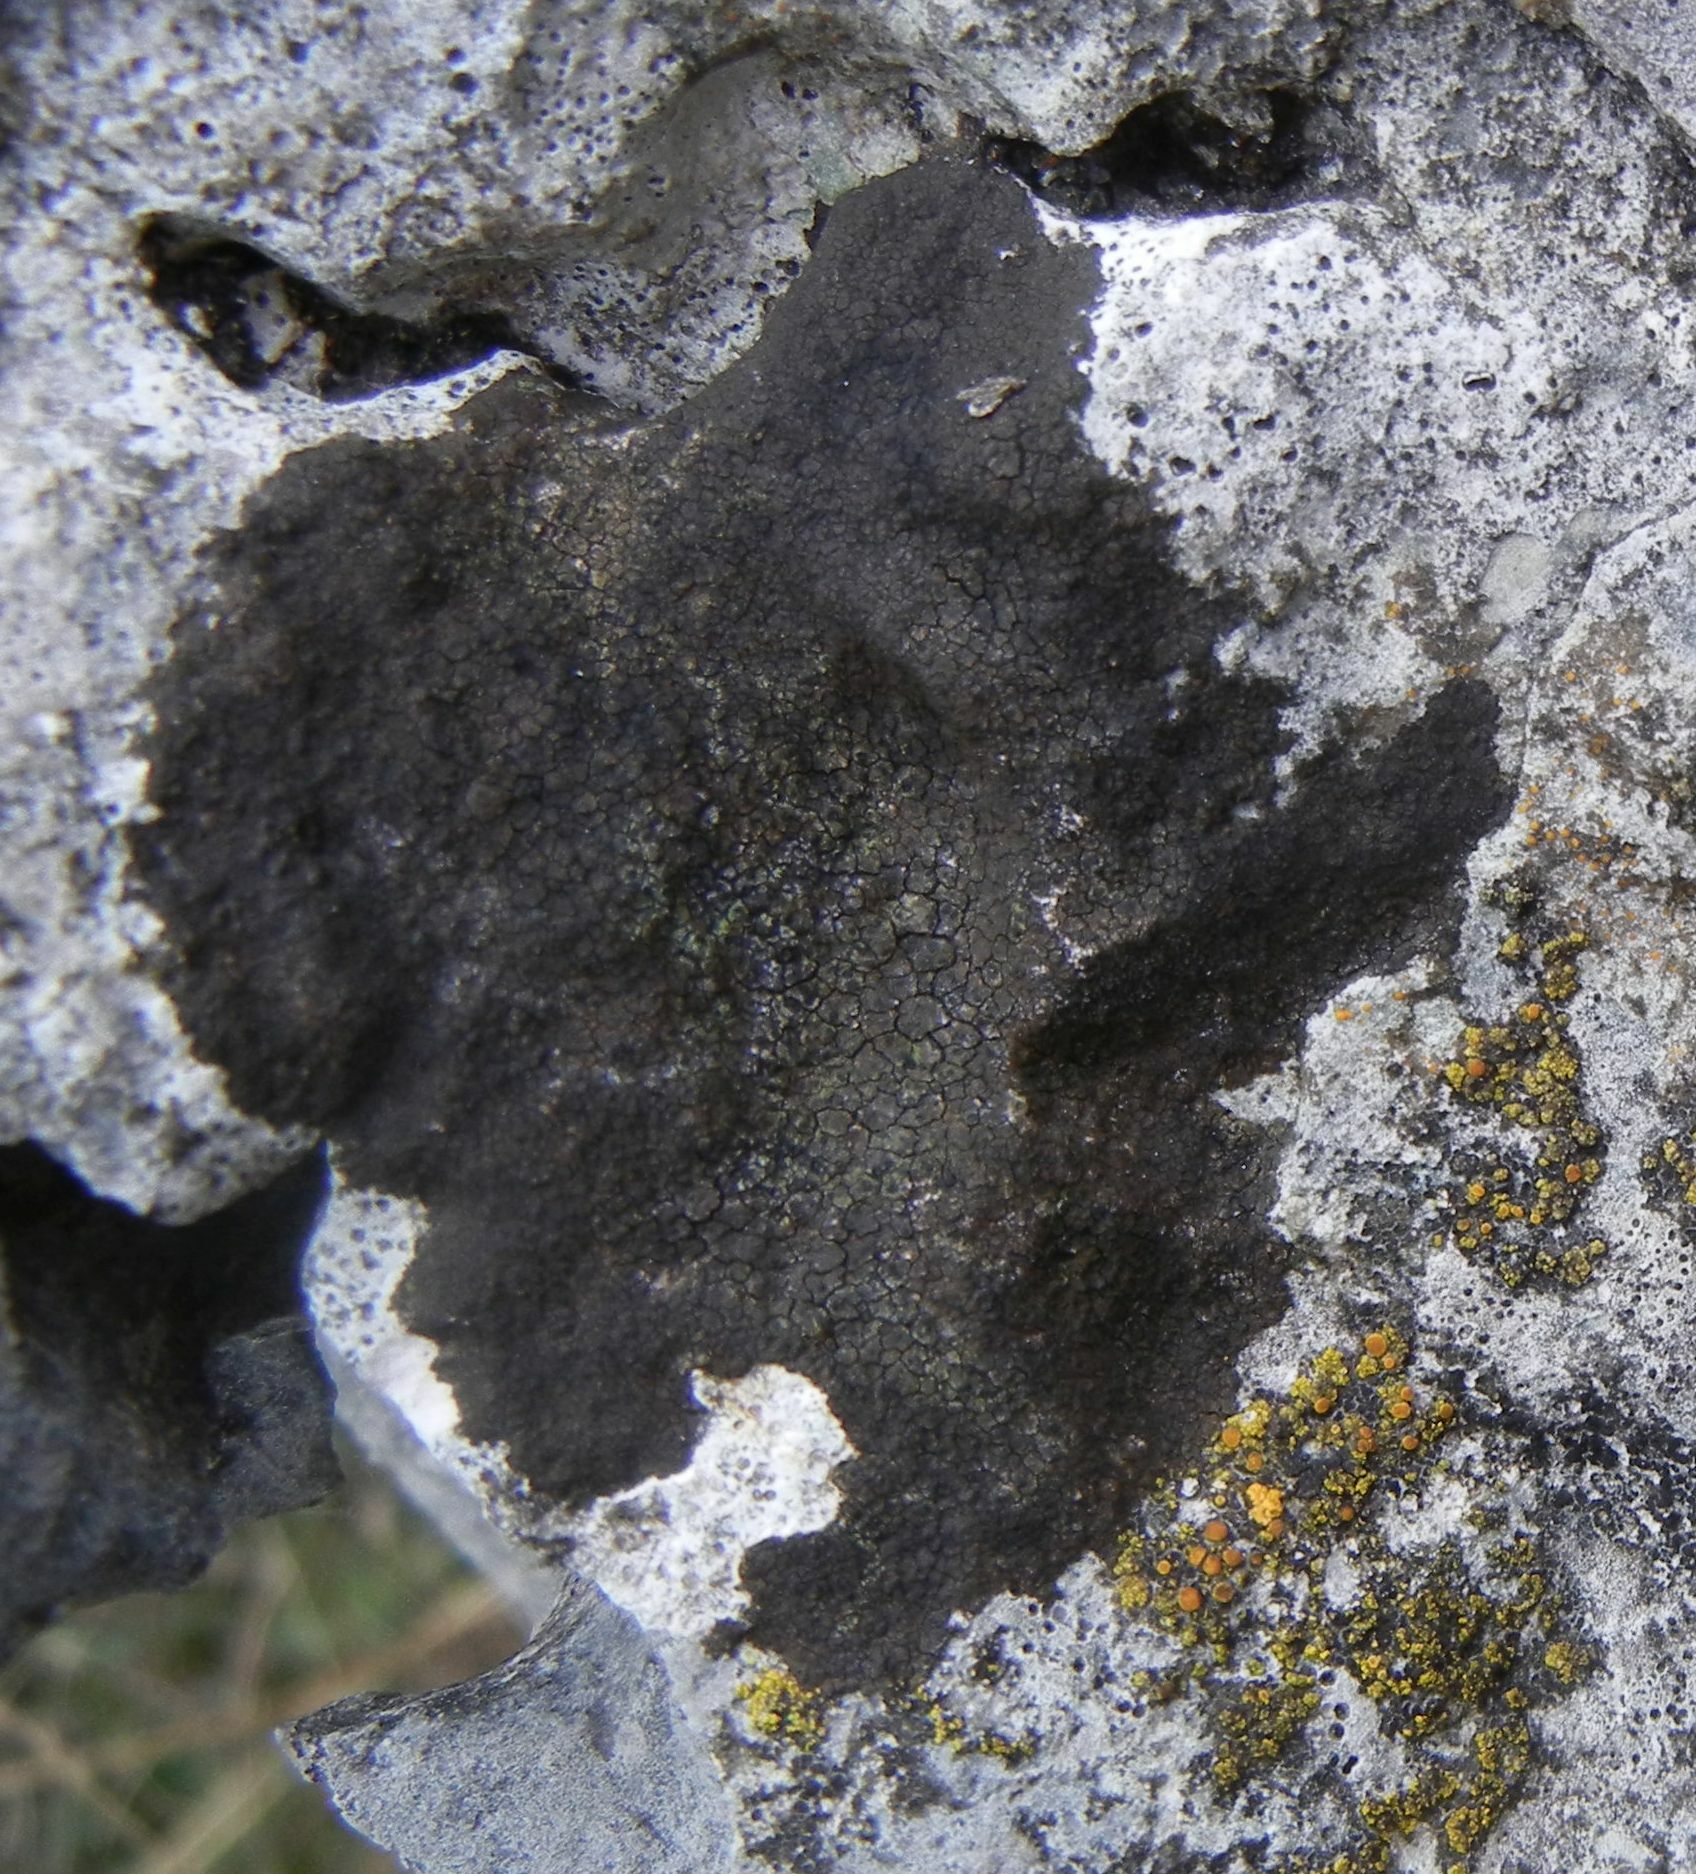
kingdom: Fungi
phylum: Ascomycota
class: Eurotiomycetes
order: Verrucariales
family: Verrucariaceae
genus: Verrucaria
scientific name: Verrucaria nigrescens
